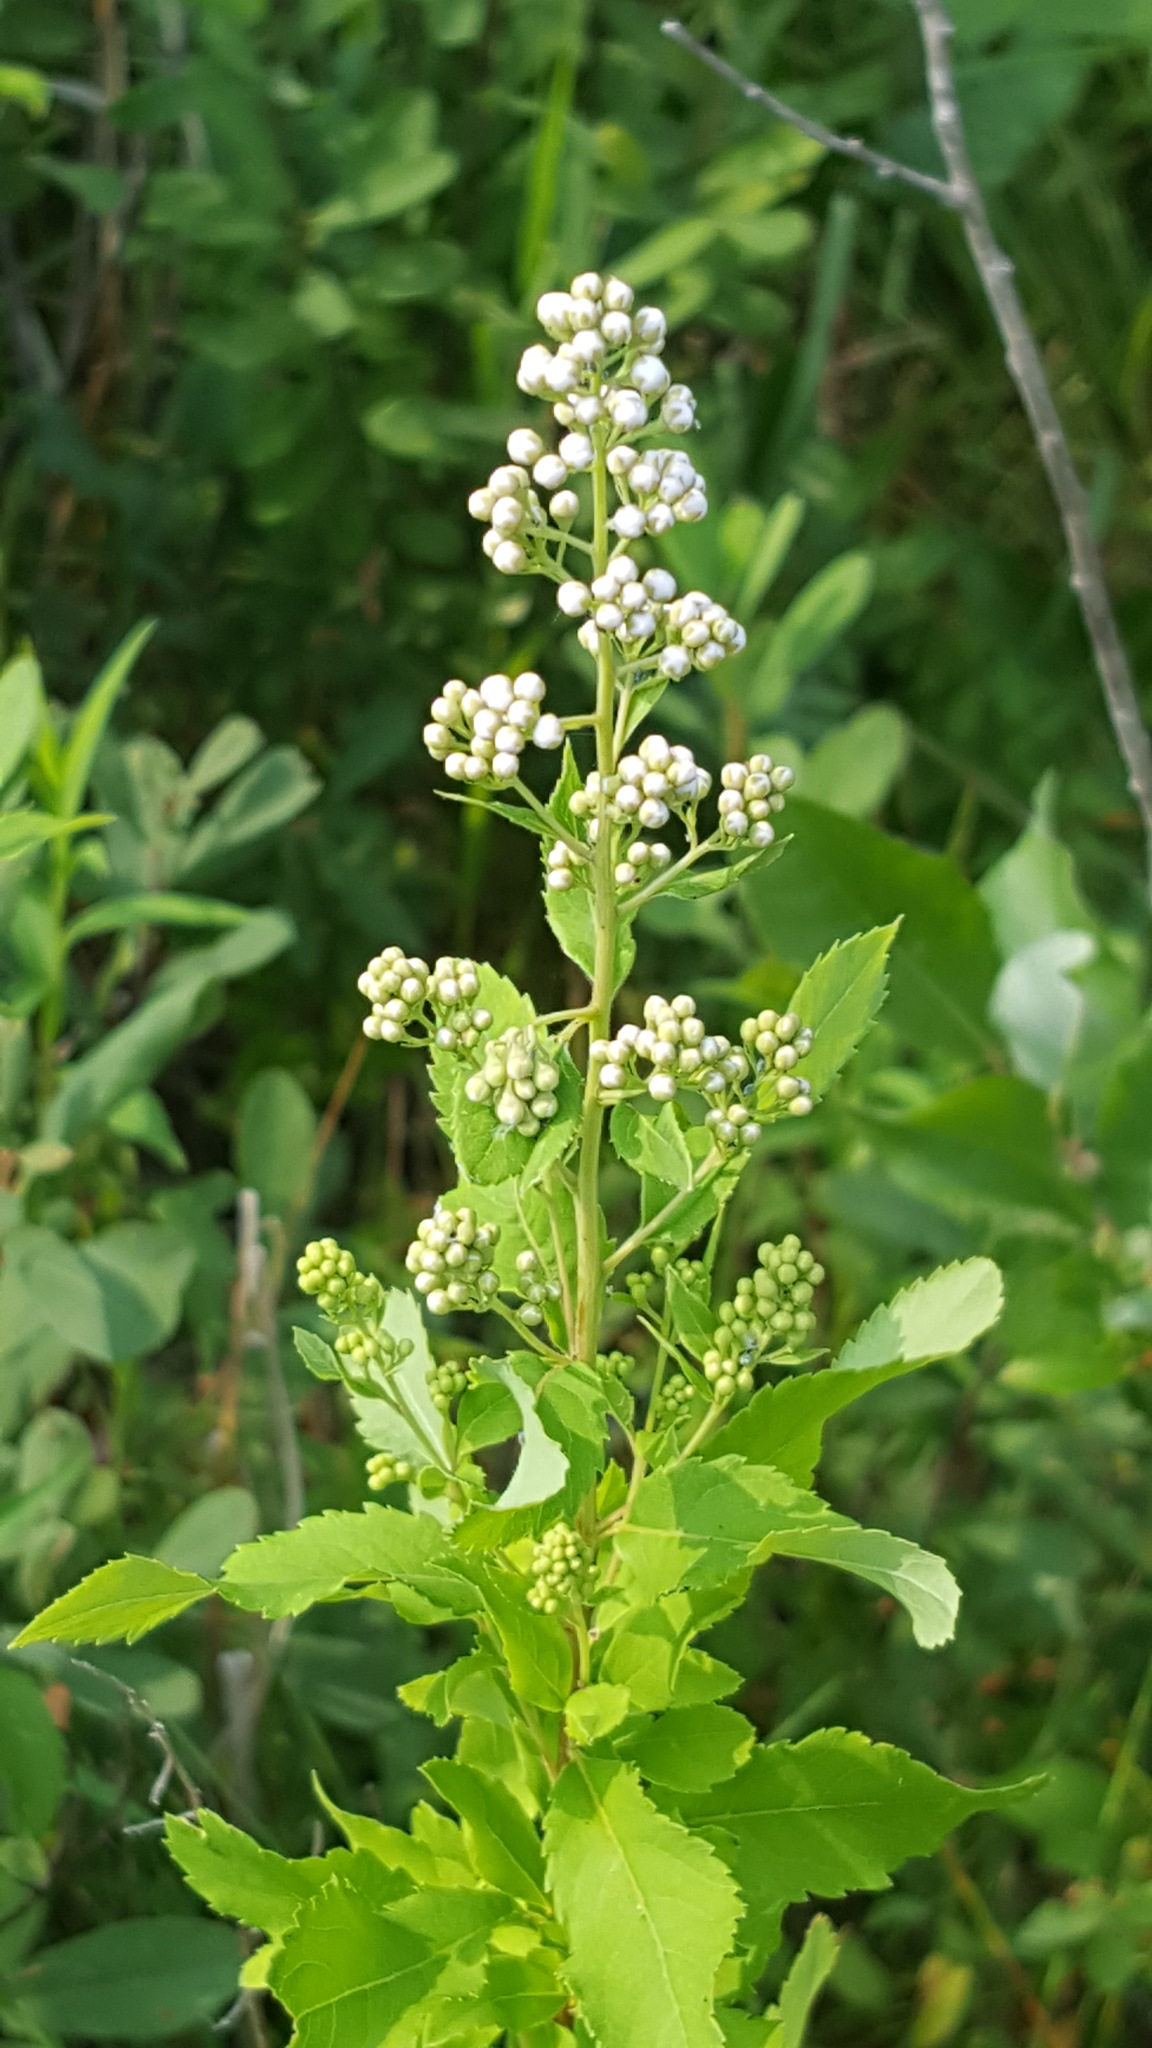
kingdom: Plantae
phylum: Tracheophyta
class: Magnoliopsida
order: Rosales
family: Rosaceae
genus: Spiraea
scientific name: Spiraea alba
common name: Pale bridewort
